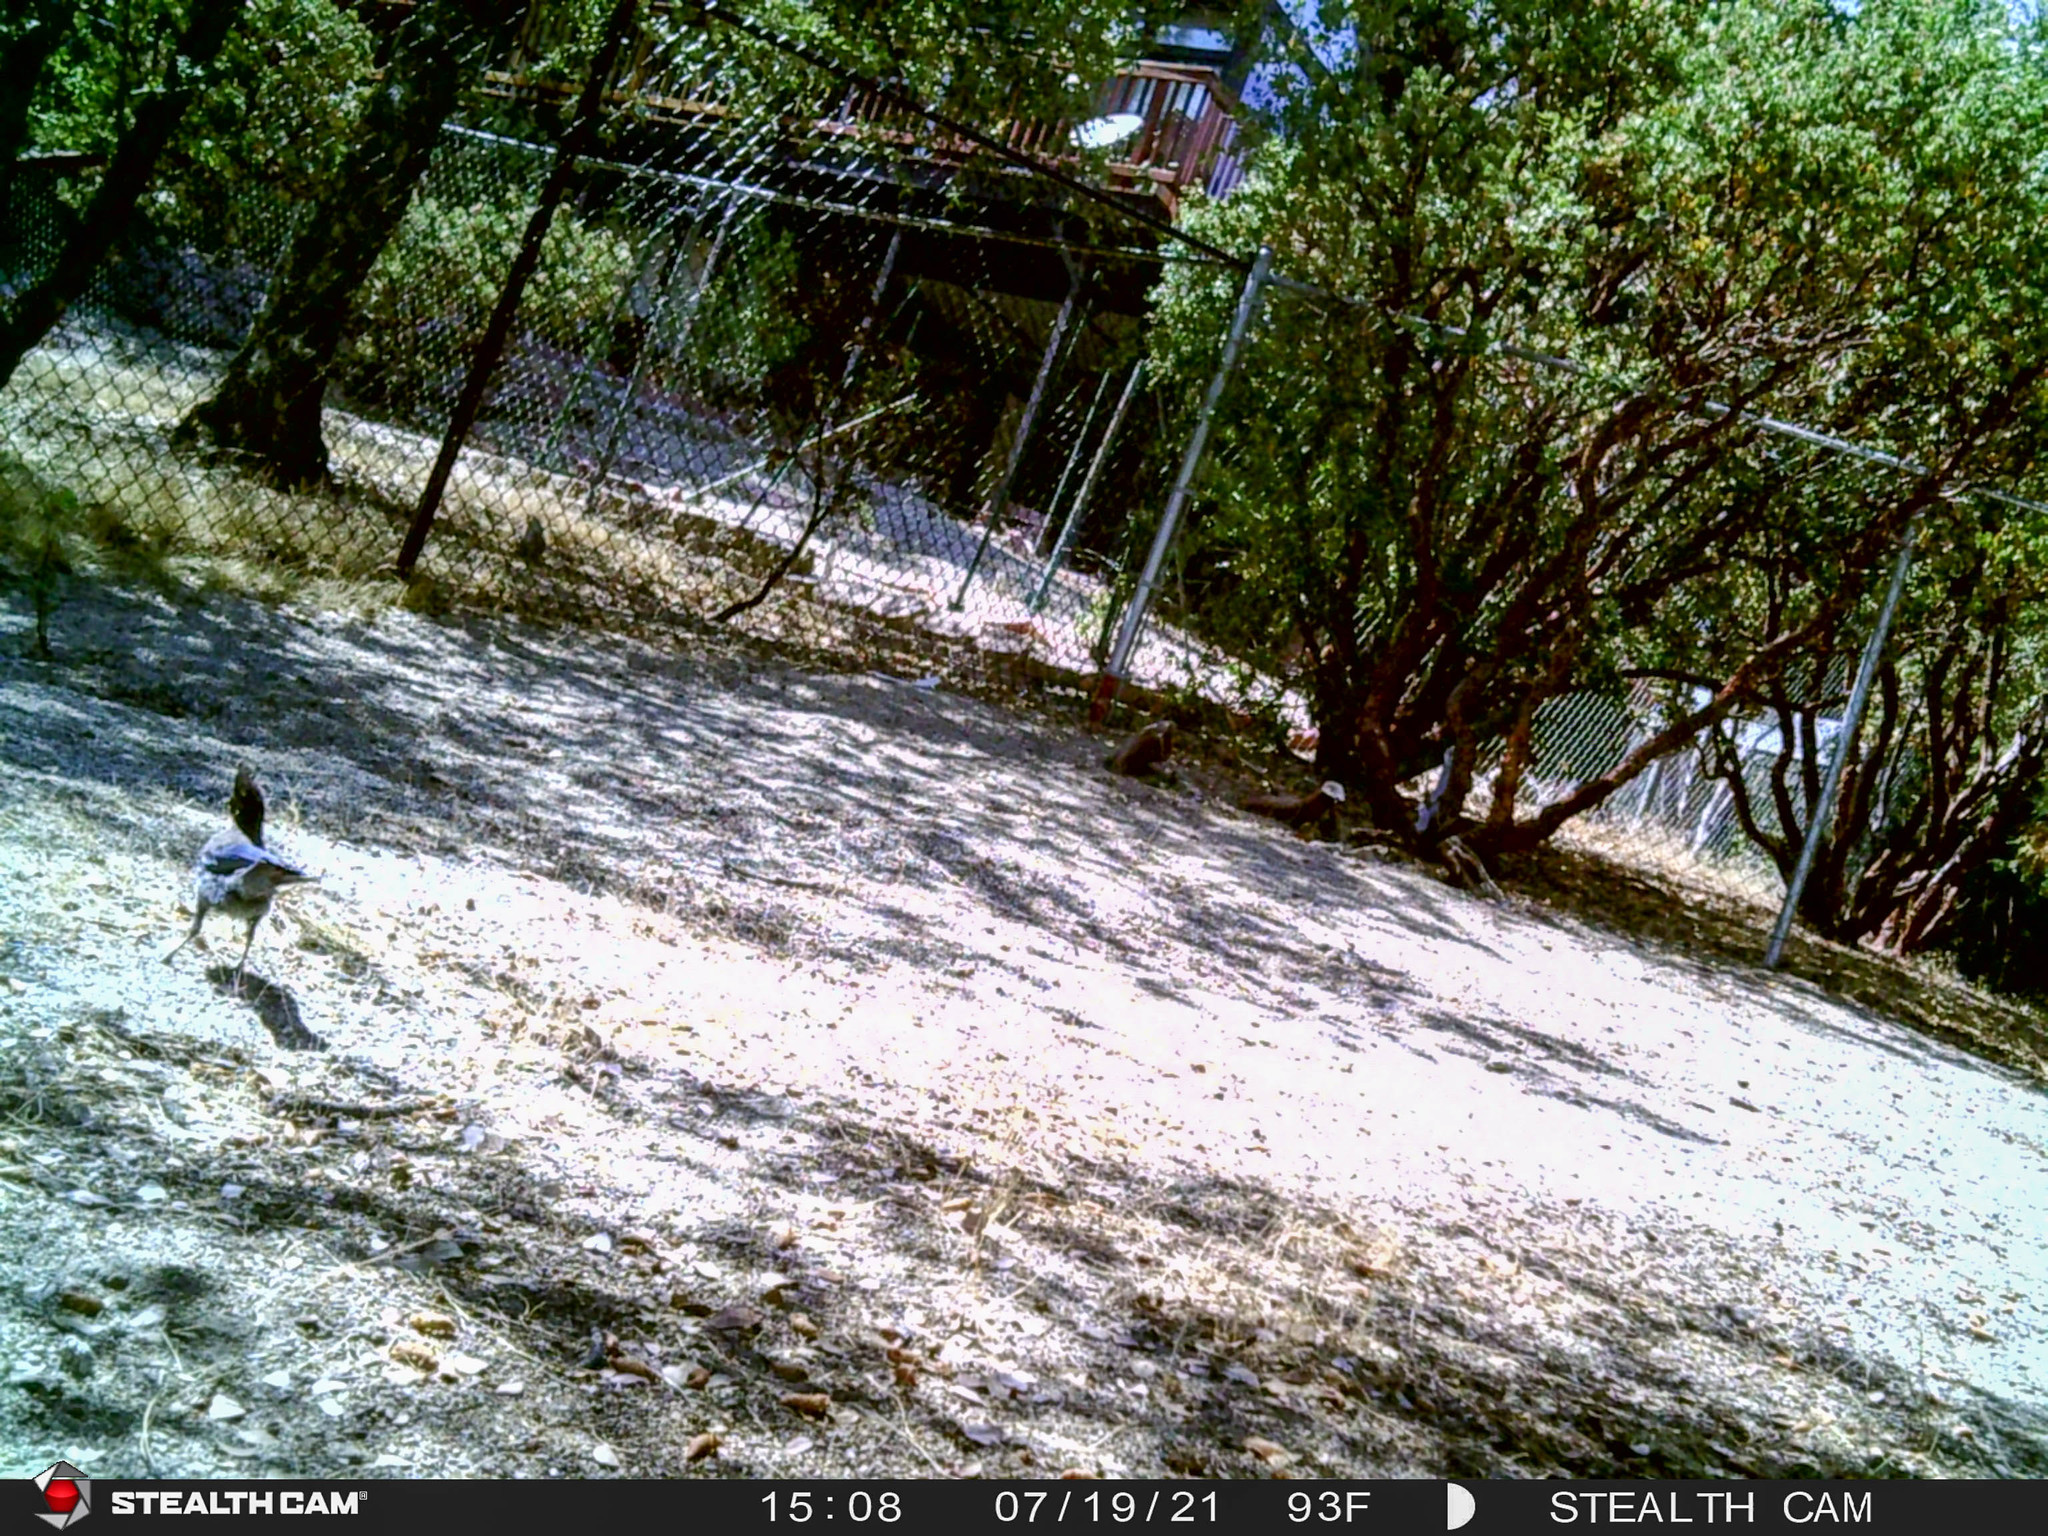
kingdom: Animalia
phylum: Chordata
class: Aves
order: Passeriformes
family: Corvidae
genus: Cyanocitta
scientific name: Cyanocitta stelleri
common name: Steller's jay
